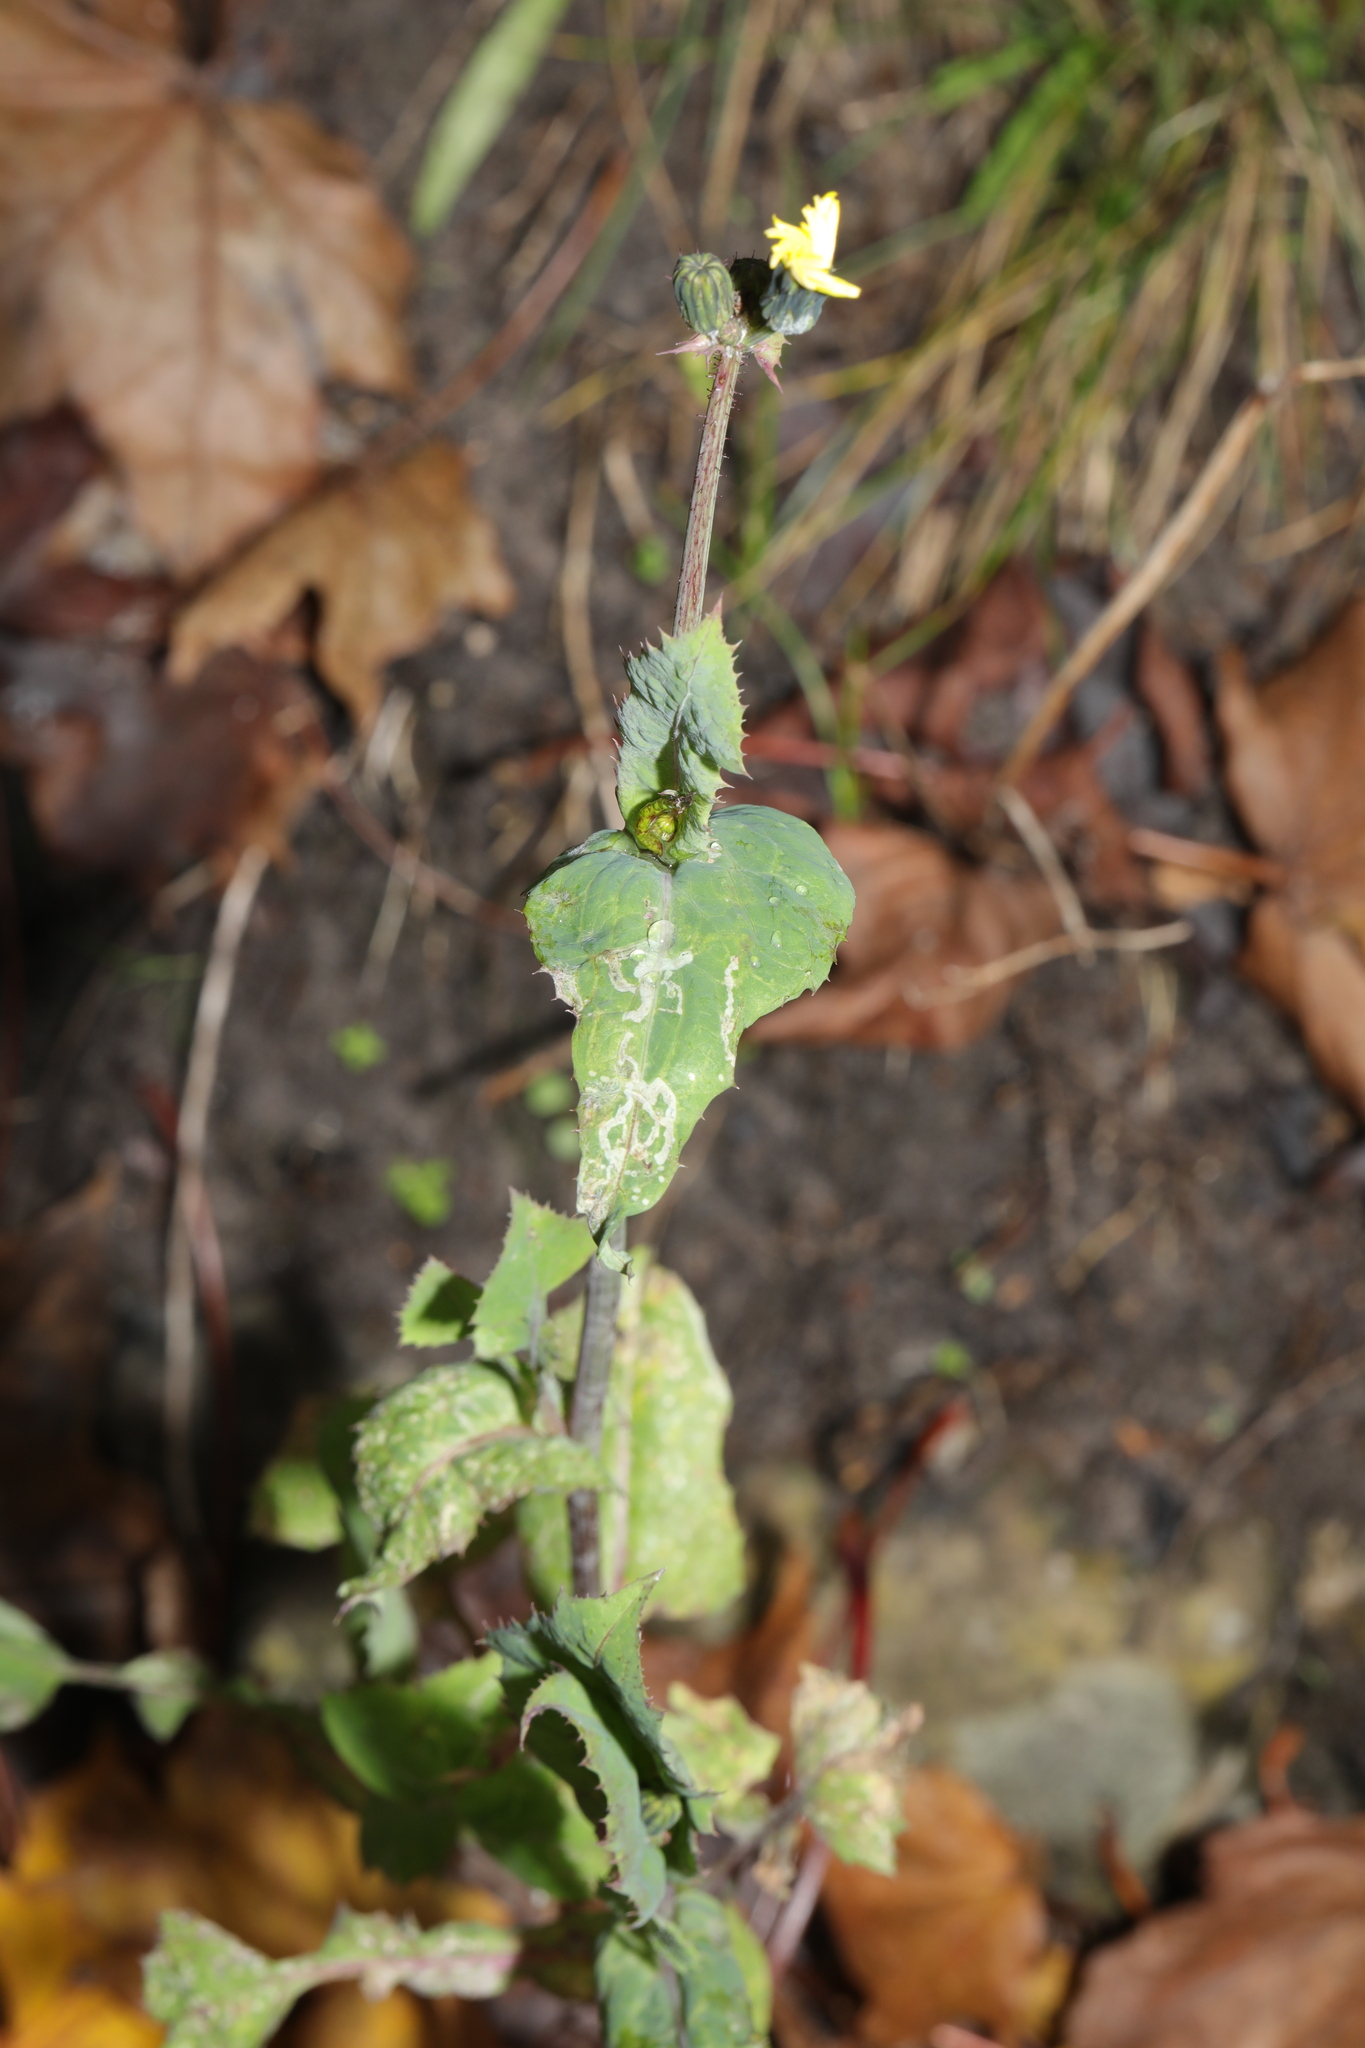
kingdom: Plantae
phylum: Tracheophyta
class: Magnoliopsida
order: Asterales
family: Asteraceae
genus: Sonchus
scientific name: Sonchus oleraceus
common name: Common sowthistle
